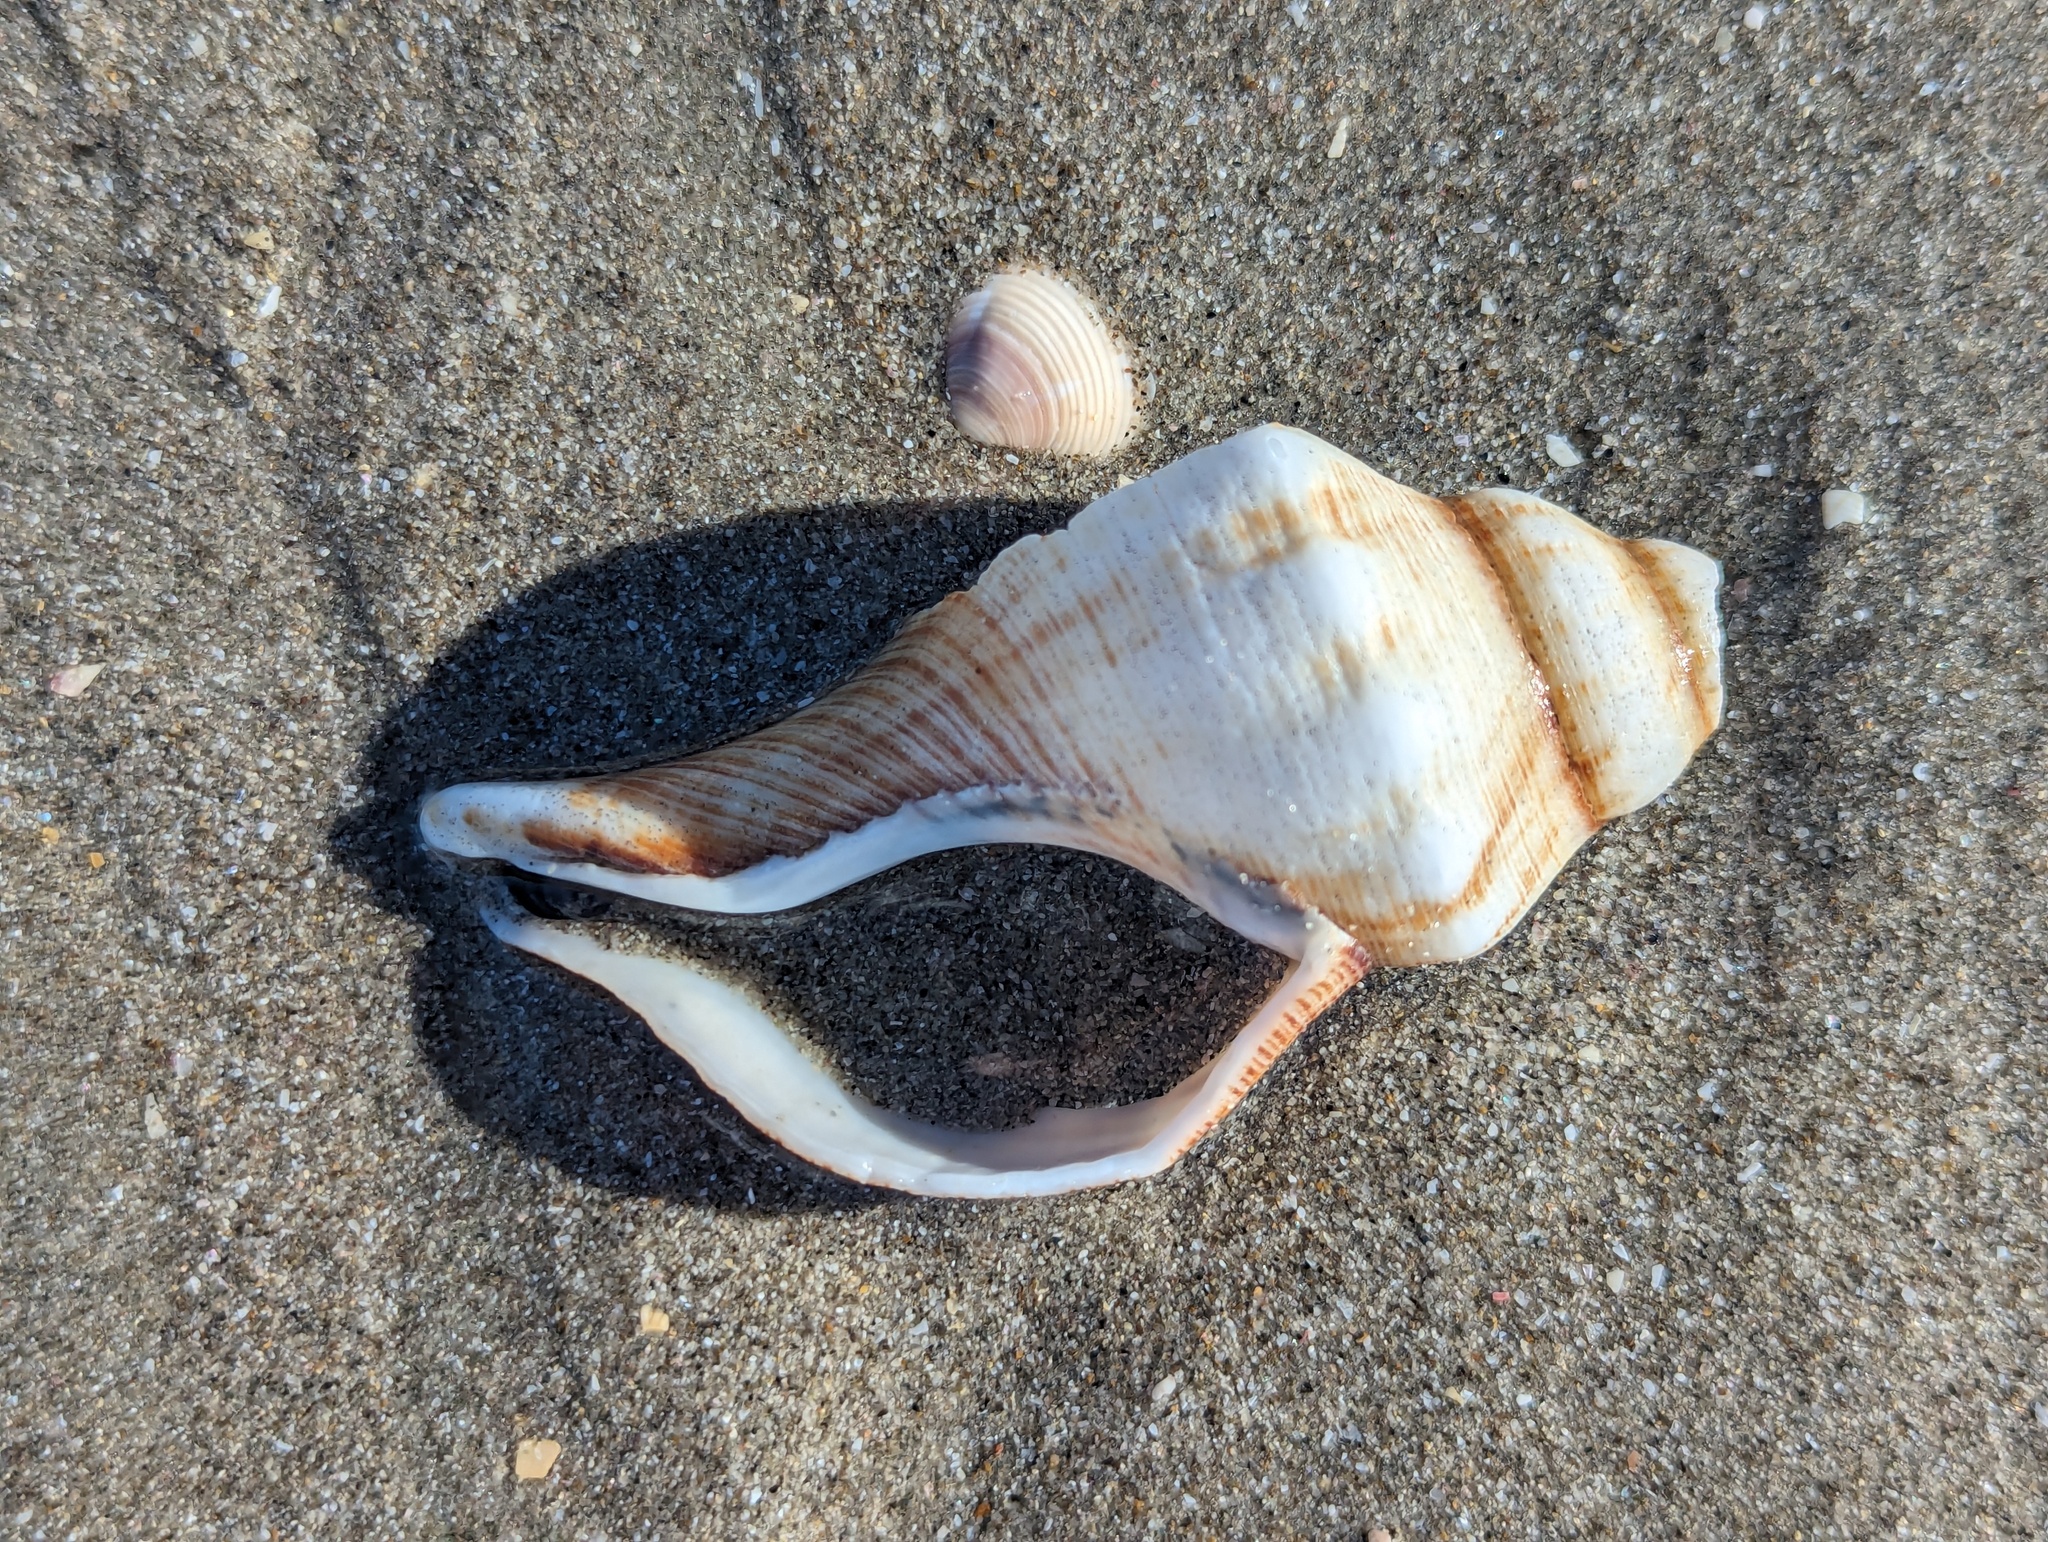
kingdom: Animalia
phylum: Mollusca
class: Gastropoda
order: Neogastropoda
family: Austrosiphonidae
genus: Penion
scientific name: Penion sulcatus
